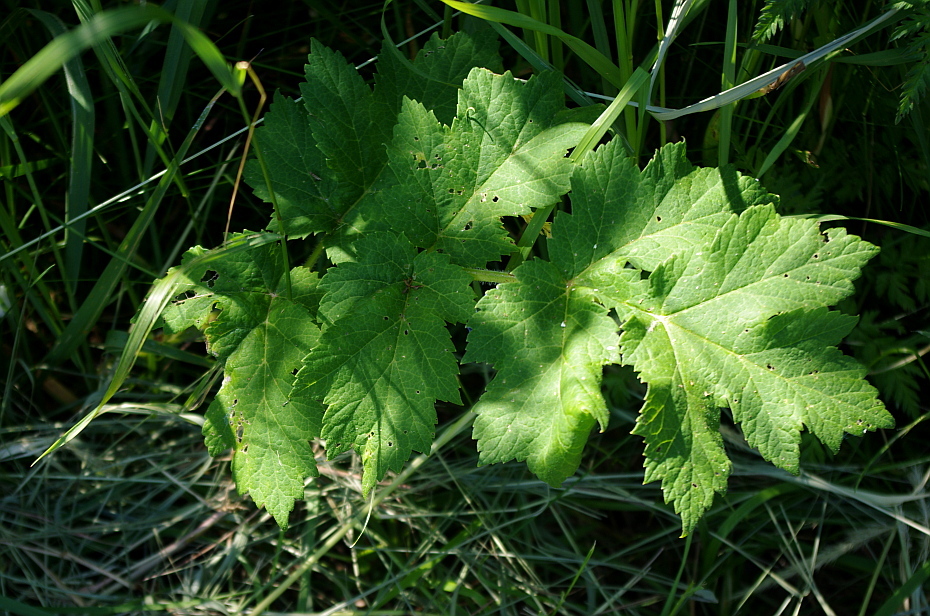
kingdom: Plantae
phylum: Tracheophyta
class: Magnoliopsida
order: Apiales
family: Apiaceae
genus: Heracleum
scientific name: Heracleum sosnowskyi
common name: Sosnowsky's hogweed
